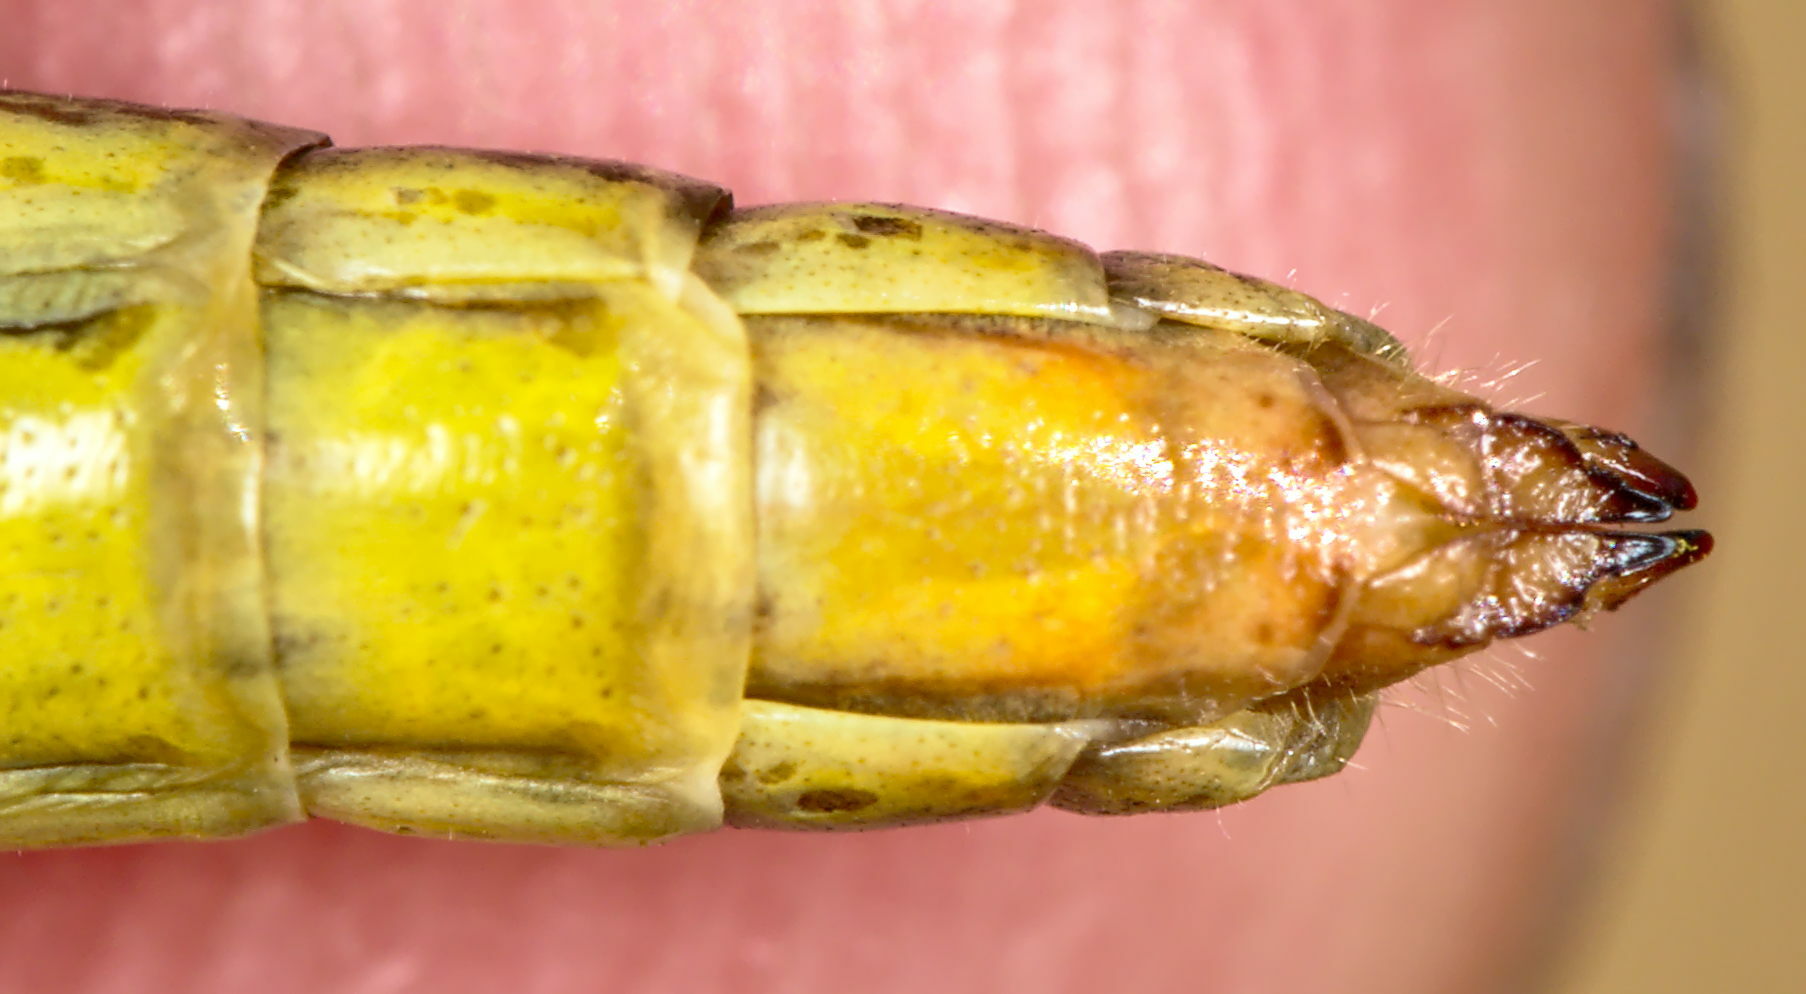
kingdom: Animalia
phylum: Arthropoda
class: Insecta
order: Orthoptera
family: Acrididae
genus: Pseudochorthippus
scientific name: Pseudochorthippus parallelus
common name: Meadow grasshopper
